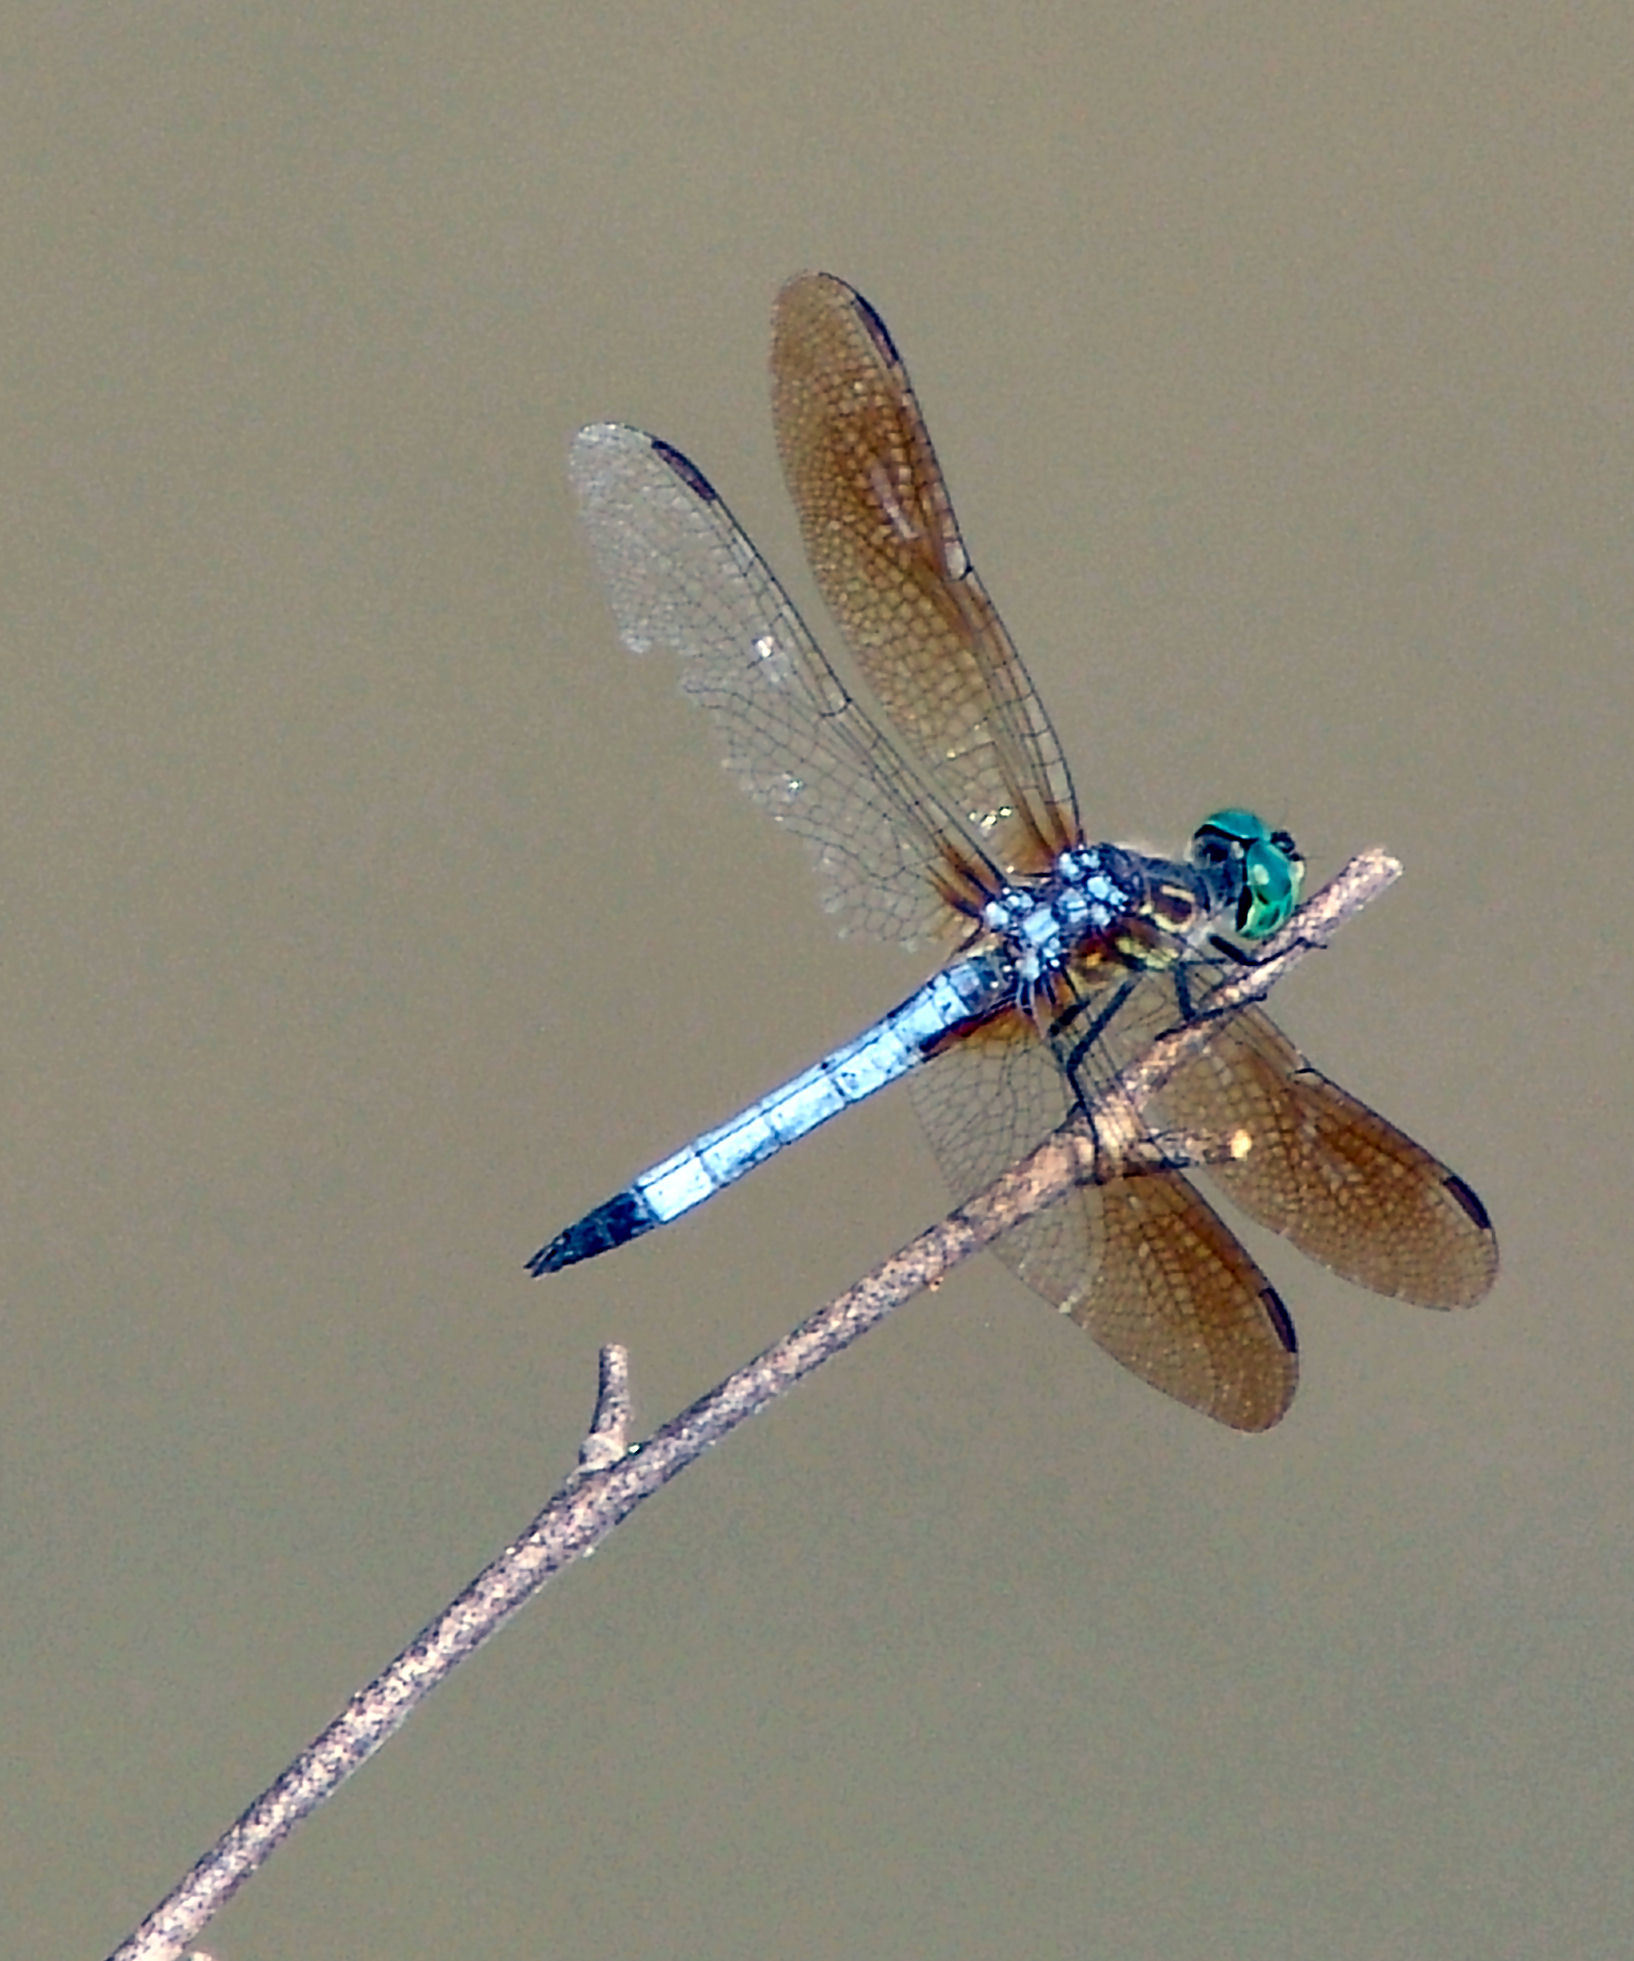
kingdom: Animalia
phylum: Arthropoda
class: Insecta
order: Odonata
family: Libellulidae
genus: Pachydiplax
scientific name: Pachydiplax longipennis
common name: Blue dasher
